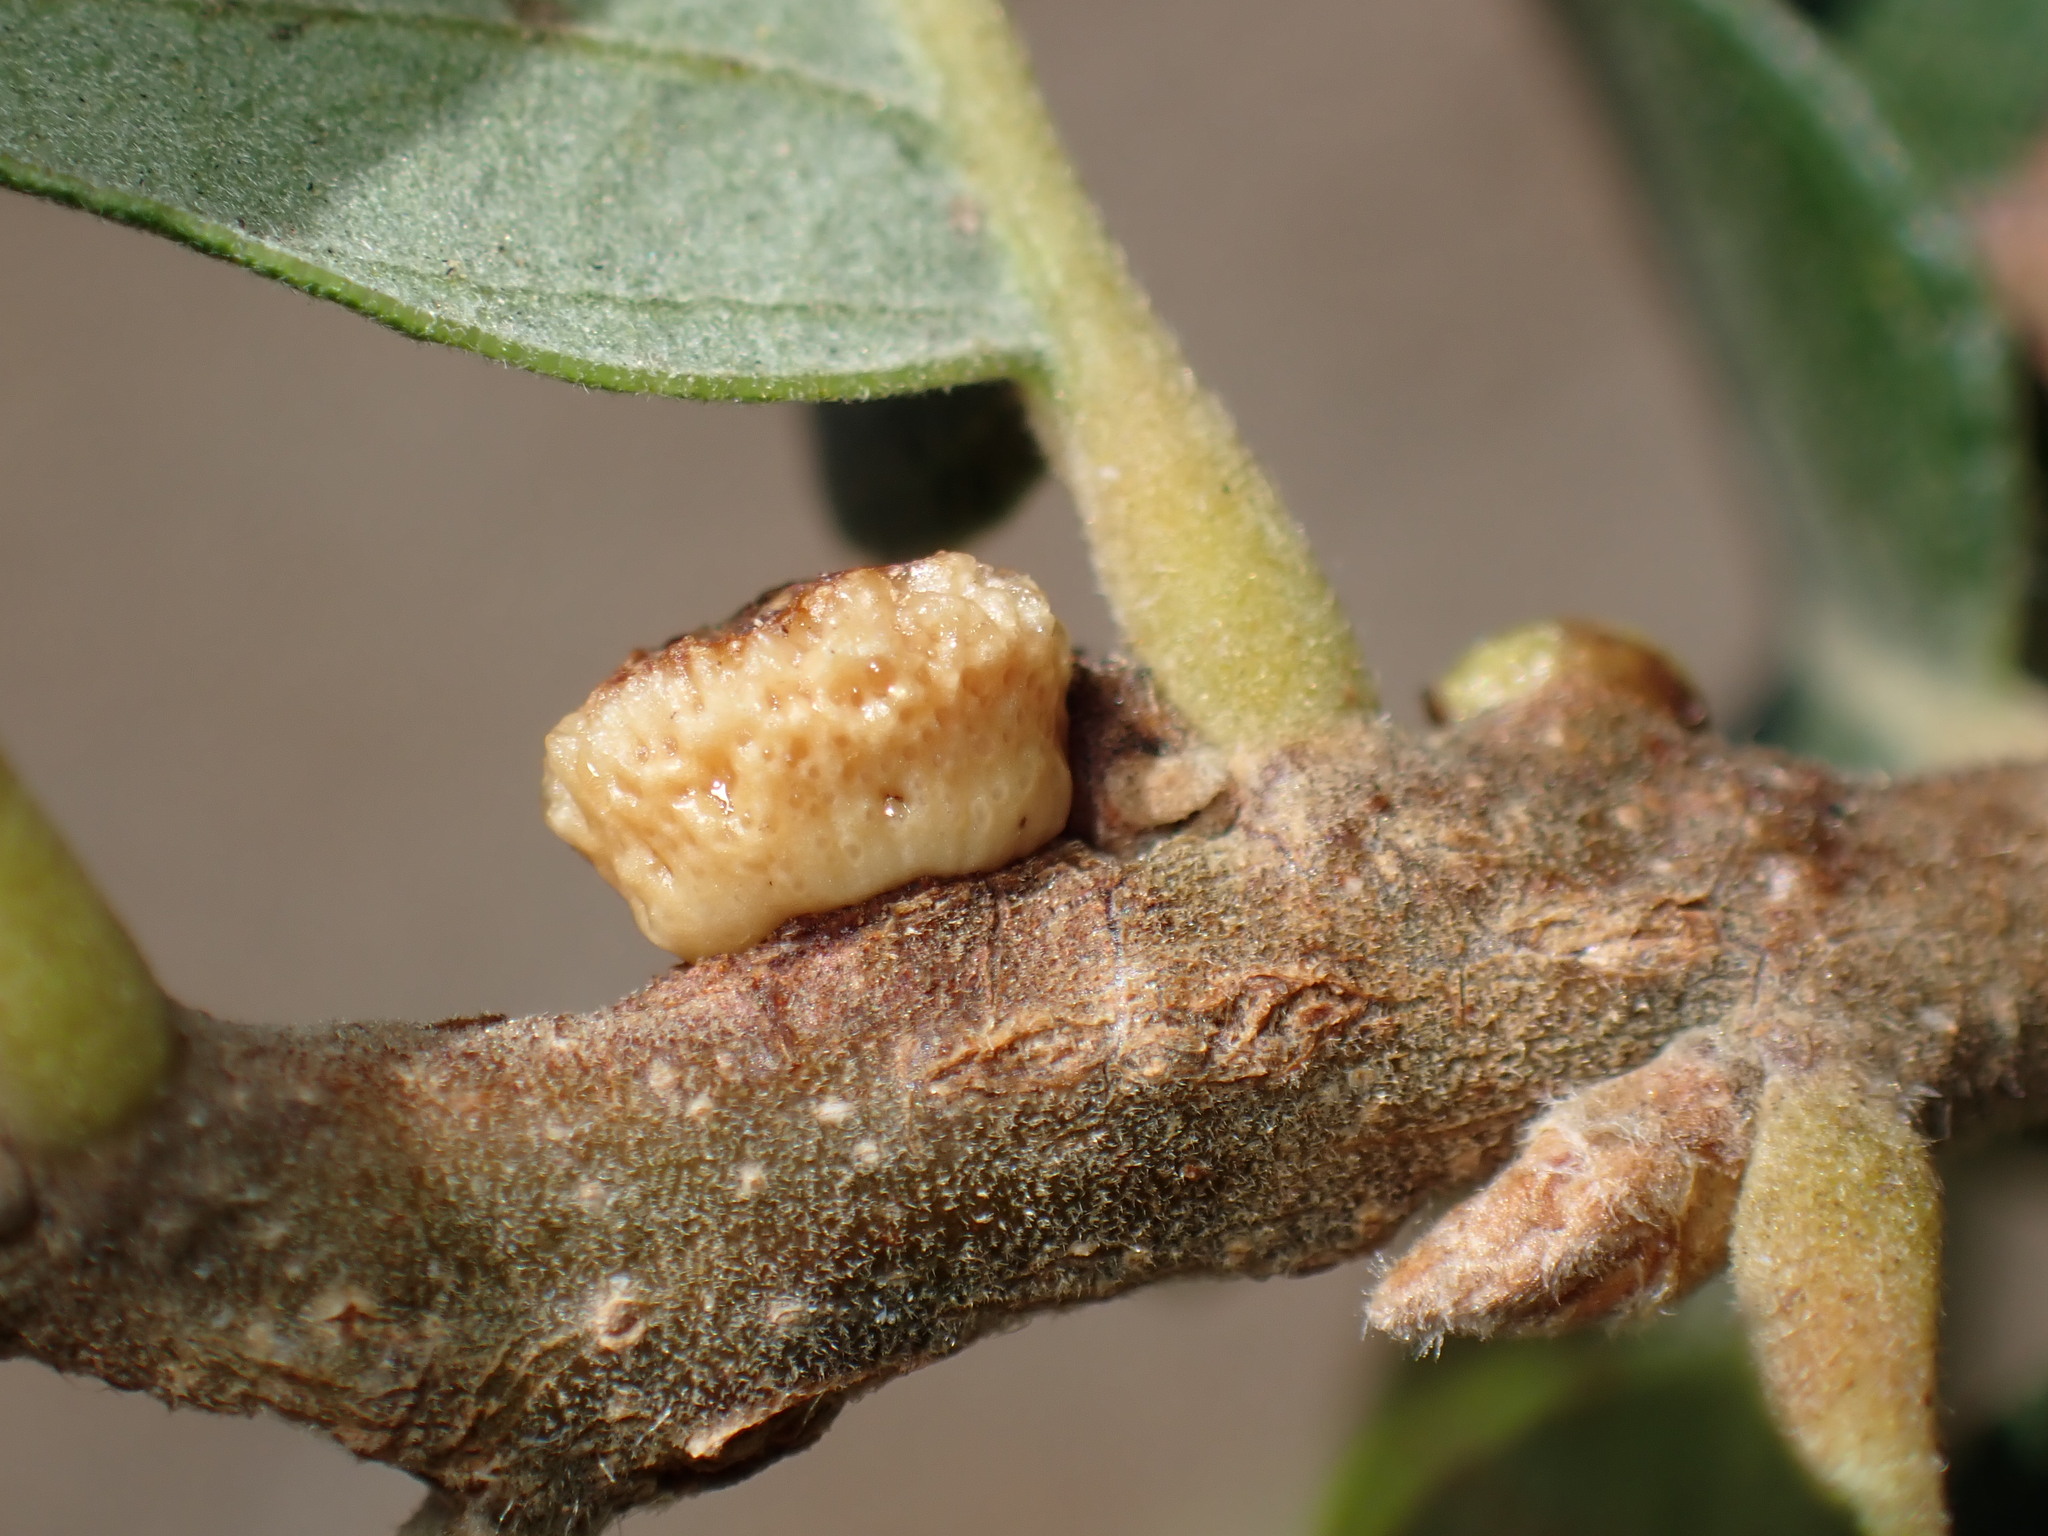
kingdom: Animalia
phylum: Arthropoda
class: Insecta
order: Hymenoptera
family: Cynipidae
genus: Disholcaspis
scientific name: Disholcaspis
